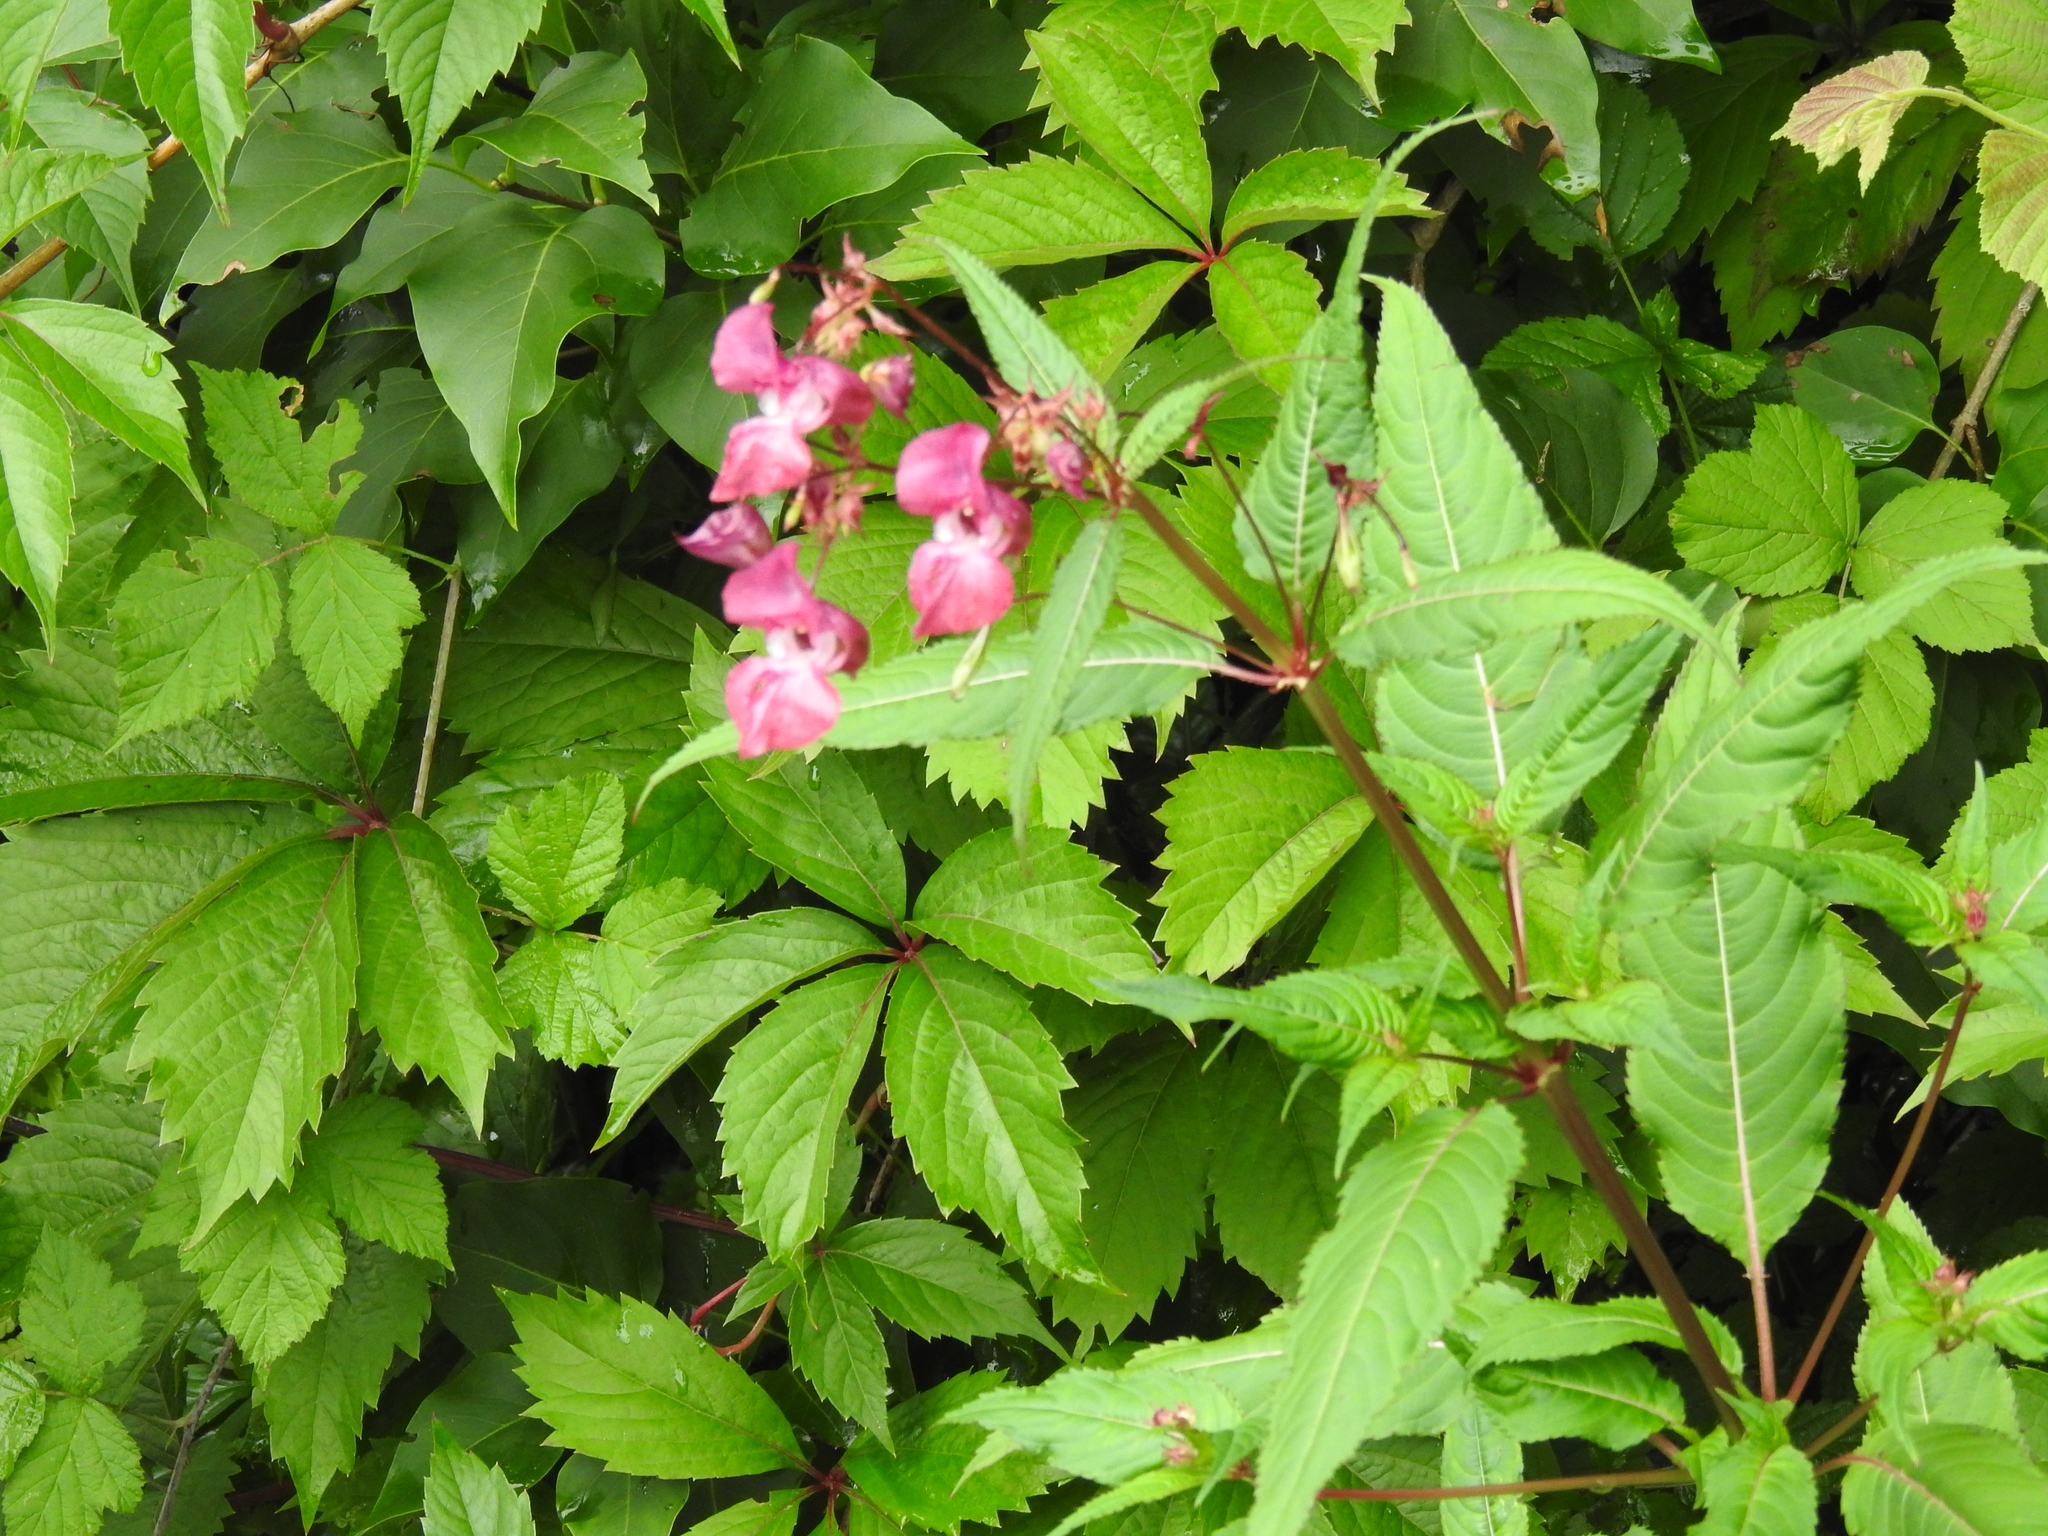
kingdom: Plantae
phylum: Tracheophyta
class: Magnoliopsida
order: Ericales
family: Balsaminaceae
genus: Impatiens
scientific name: Impatiens glandulifera
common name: Himalayan balsam
